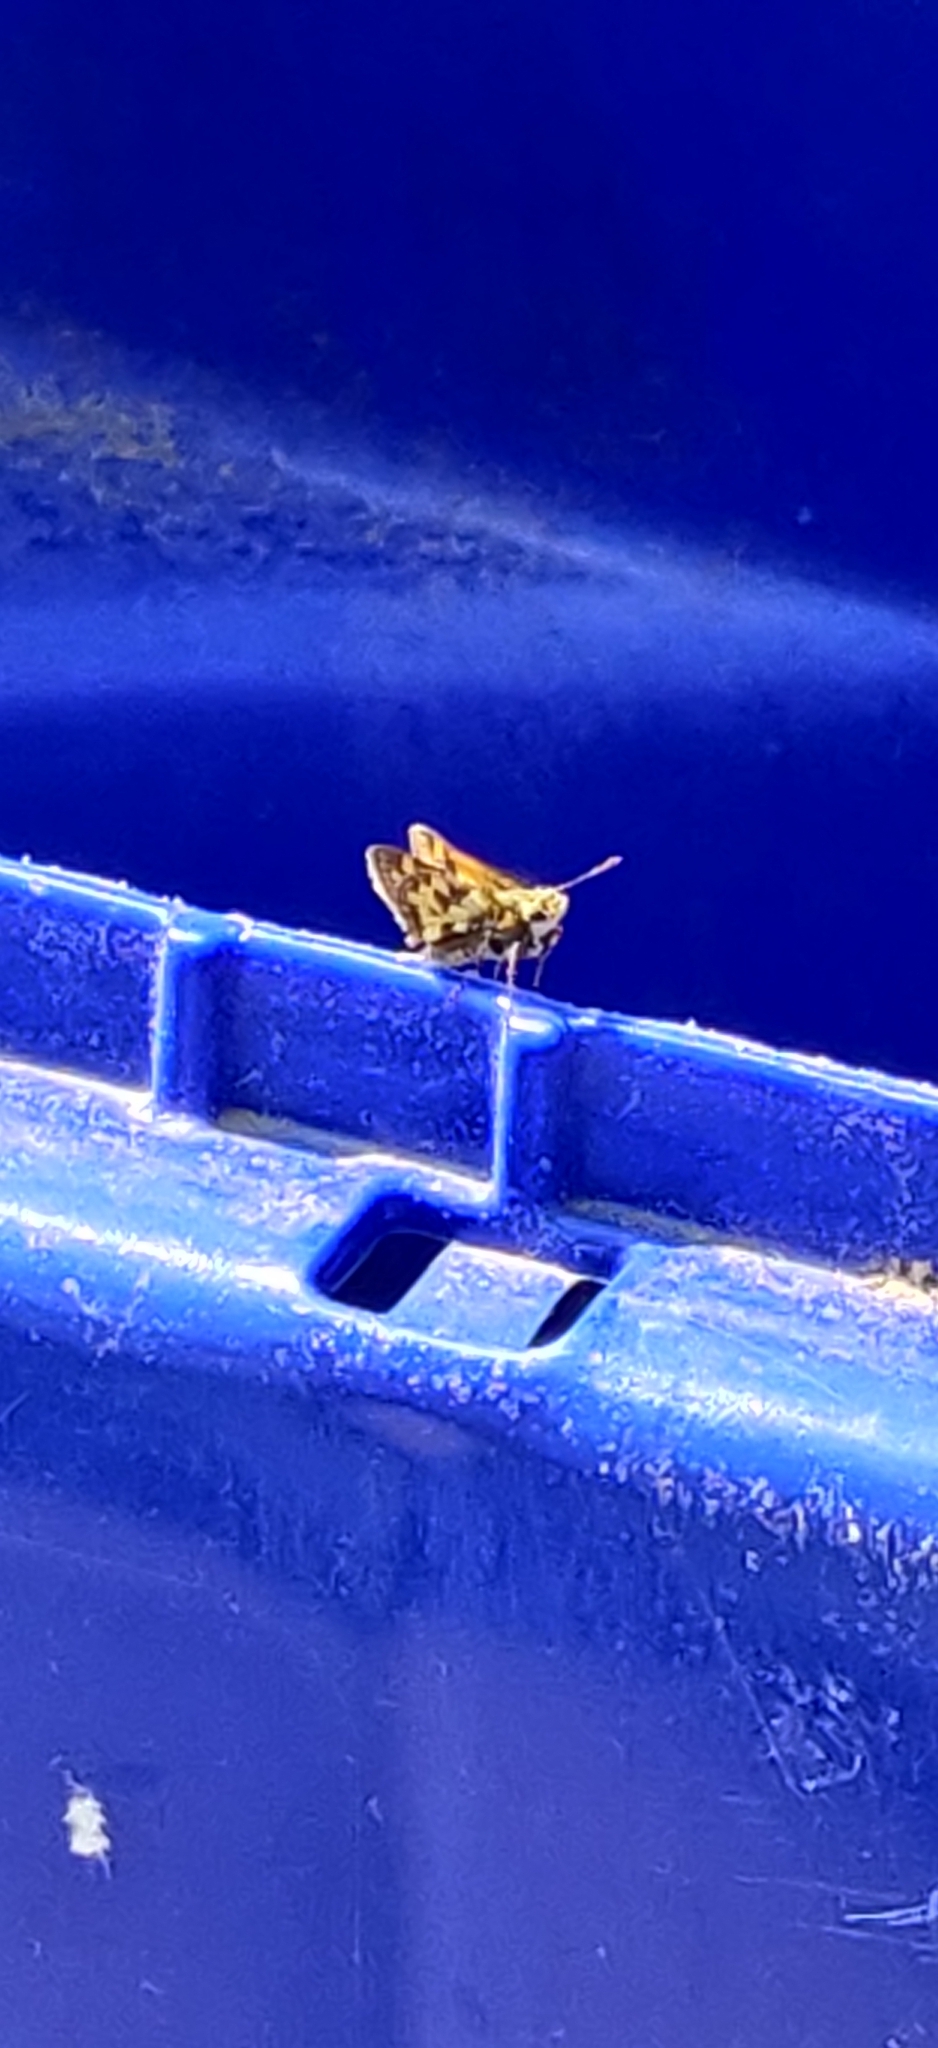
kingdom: Animalia
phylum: Arthropoda
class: Insecta
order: Lepidoptera
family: Hesperiidae
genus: Polites
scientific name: Polites coras
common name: Peck's skipper
